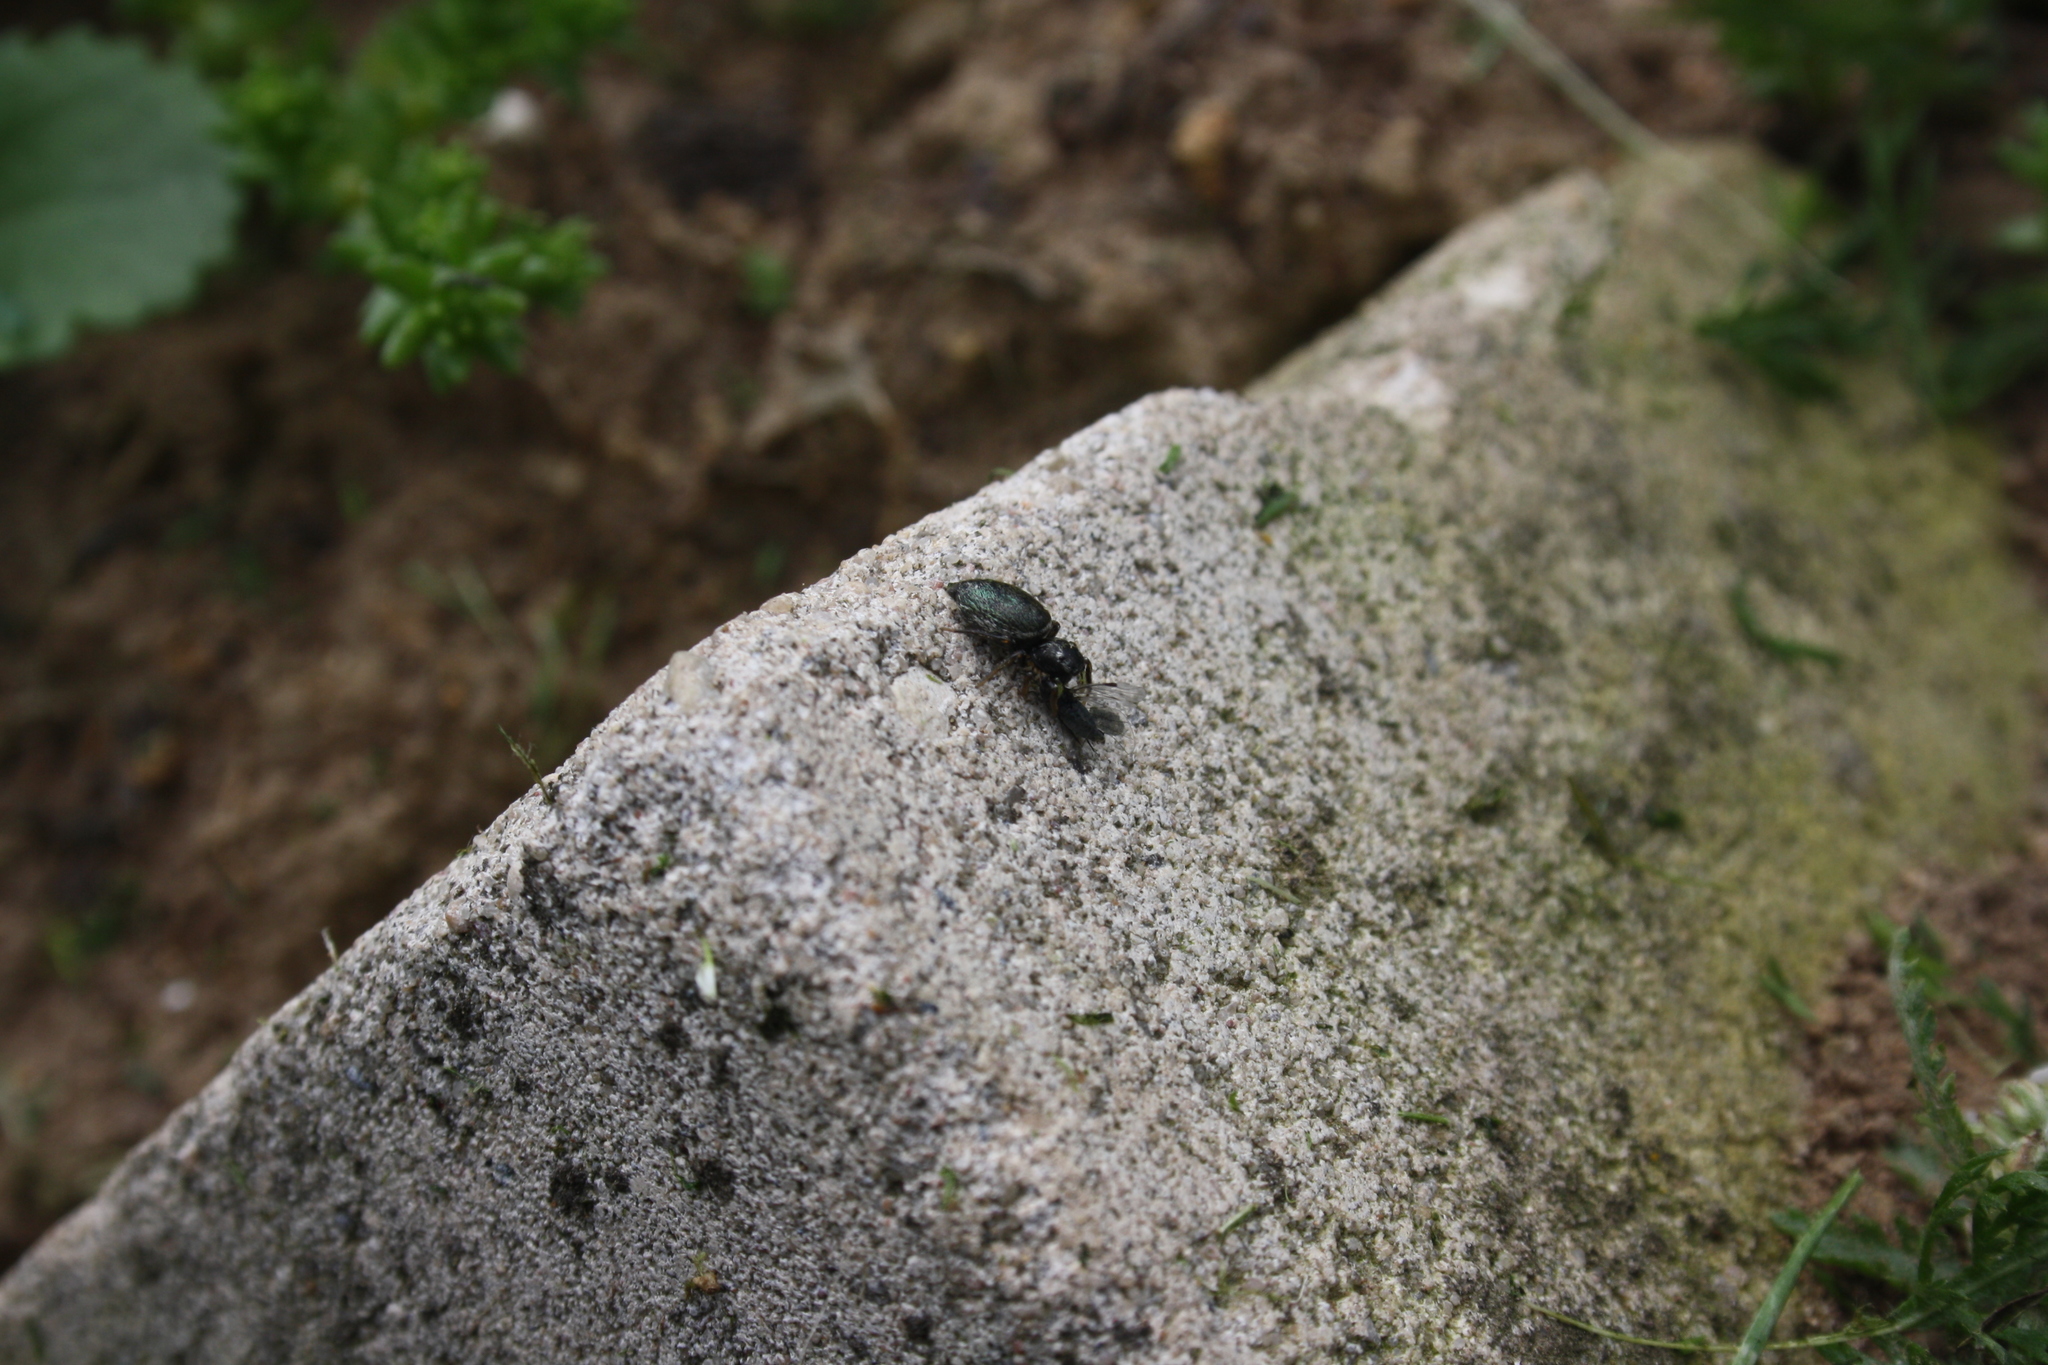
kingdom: Animalia
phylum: Arthropoda
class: Arachnida
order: Araneae
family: Salticidae
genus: Heliophanus
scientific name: Heliophanus auratus
